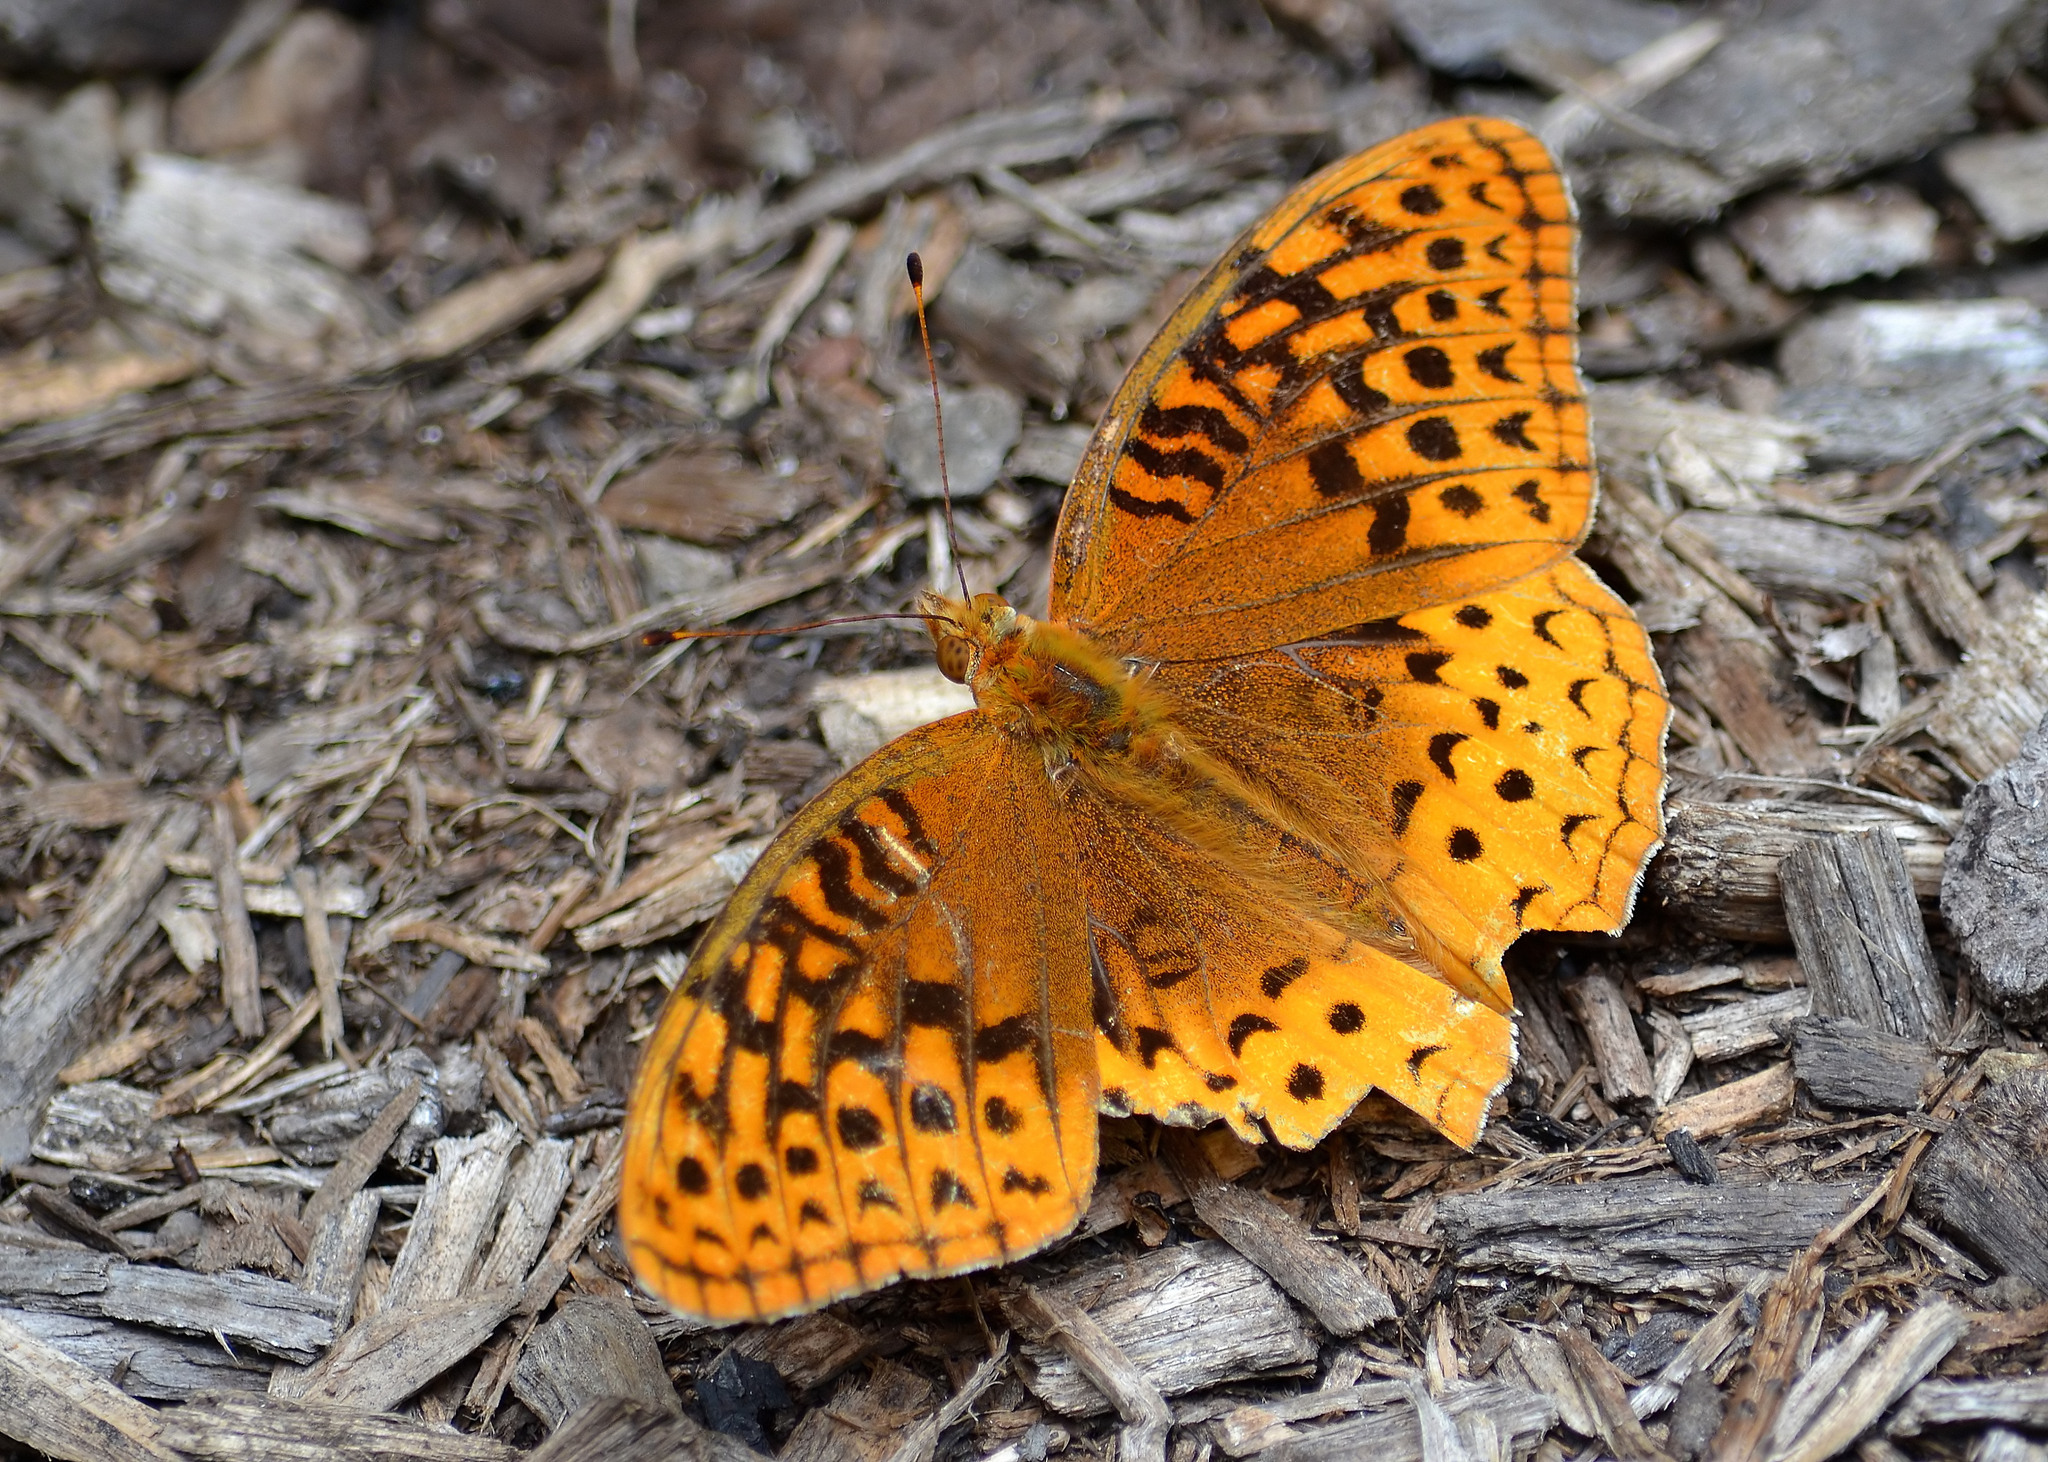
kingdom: Animalia
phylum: Arthropoda
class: Insecta
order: Lepidoptera
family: Nymphalidae
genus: Speyeria
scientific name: Speyeria cybele
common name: Great spangled fritillary
